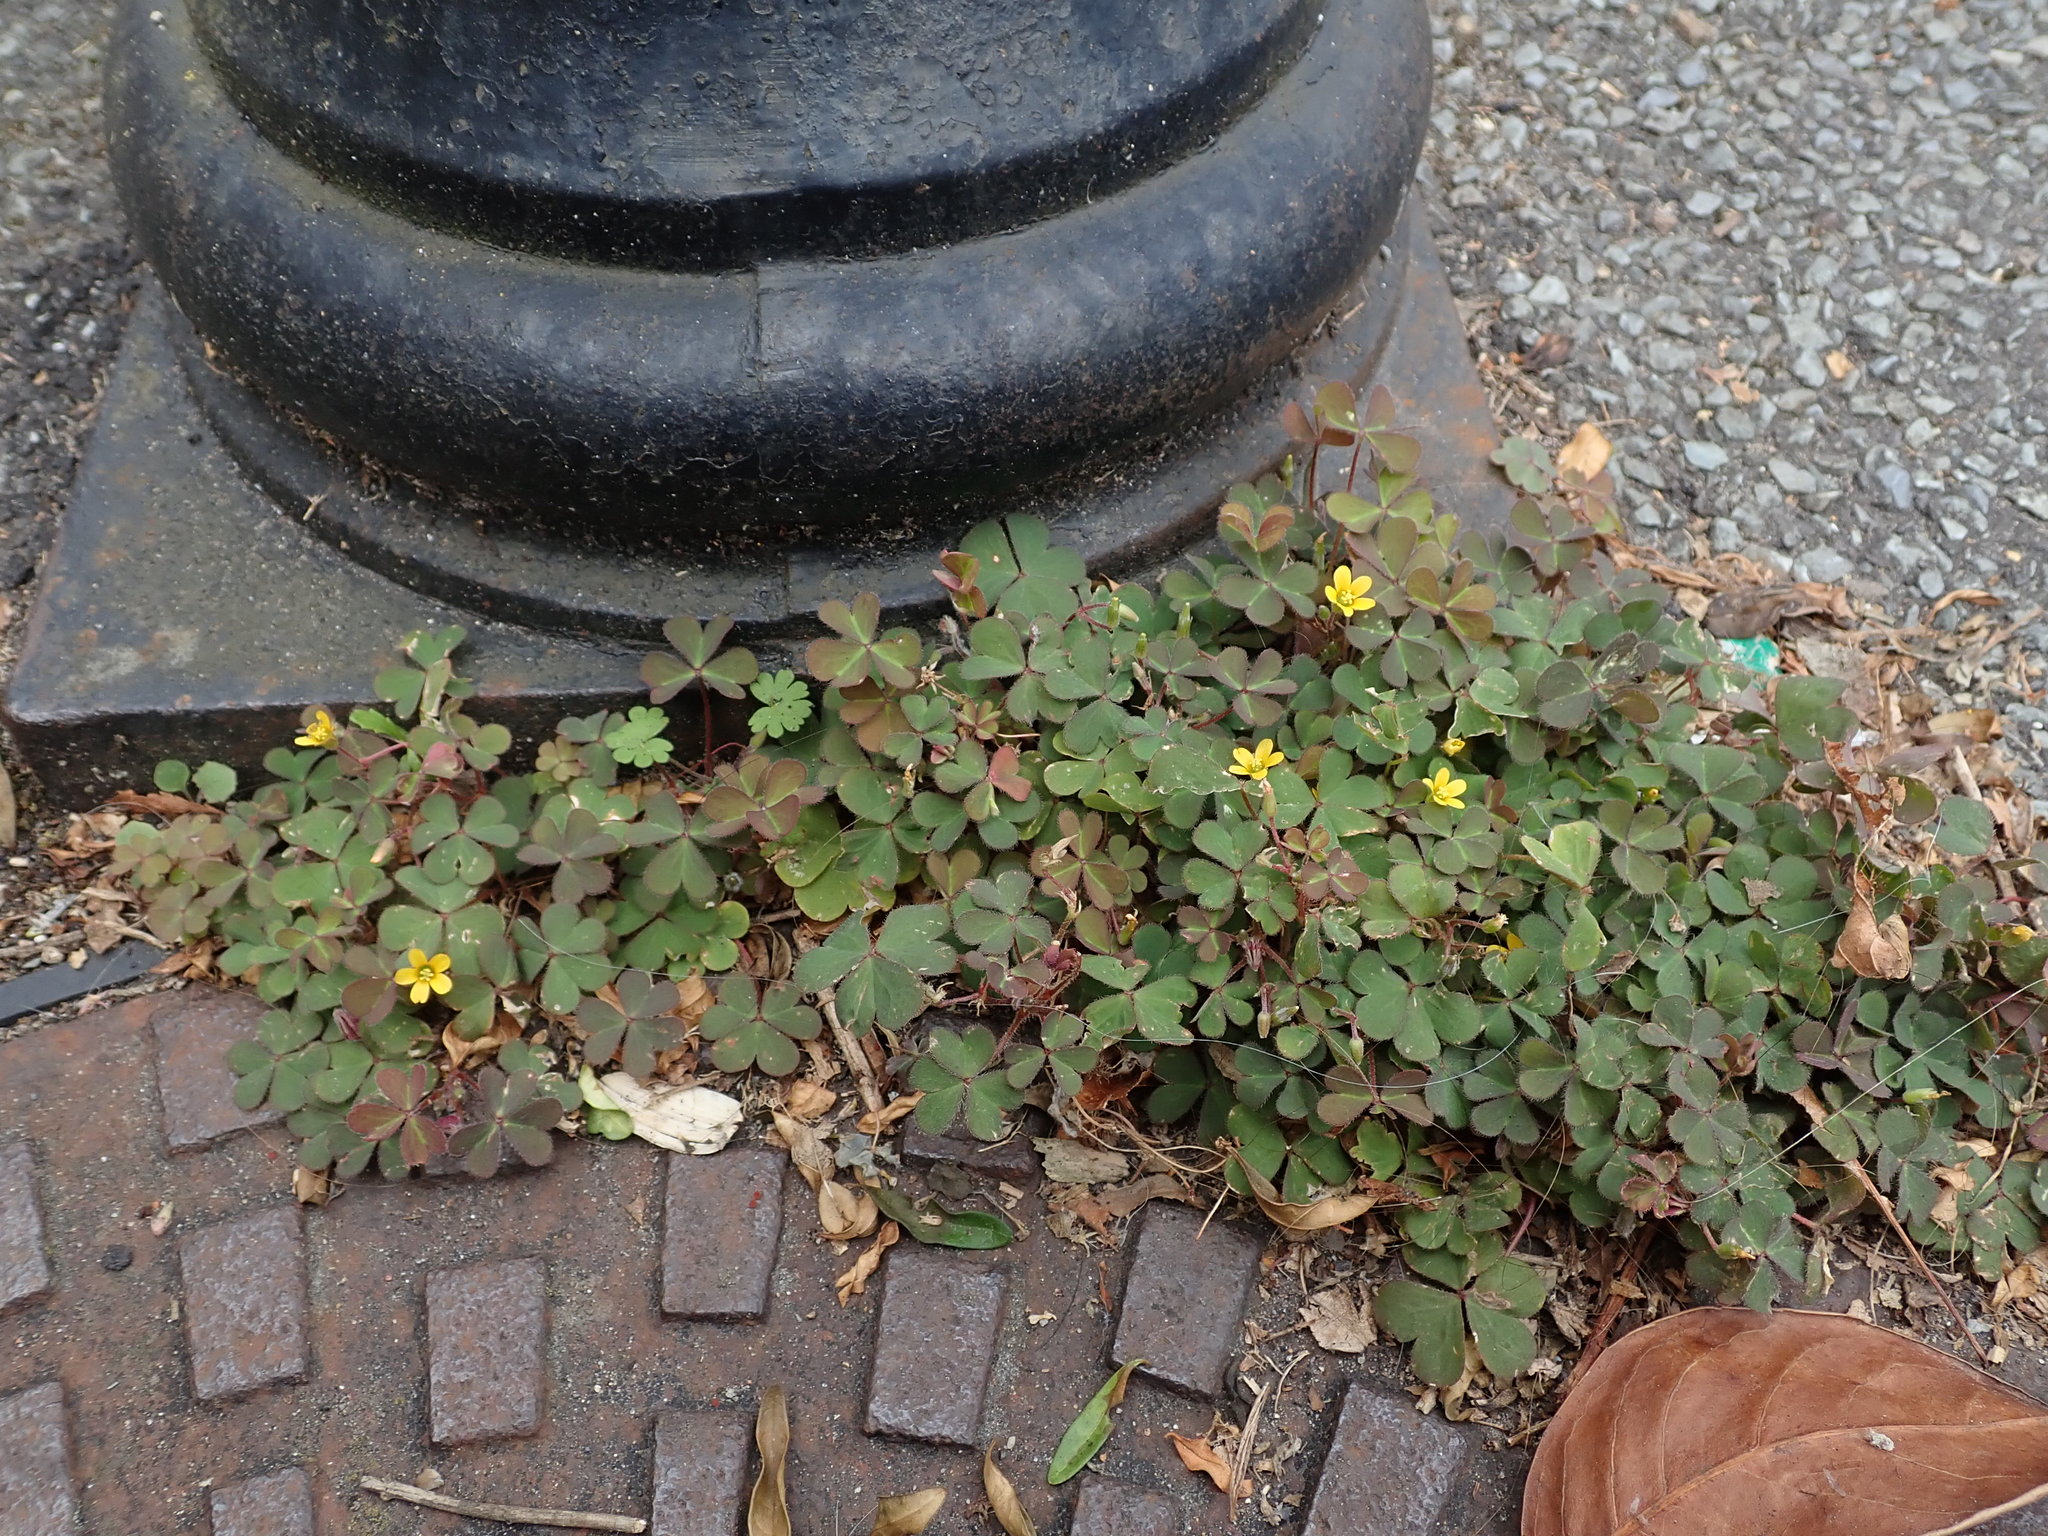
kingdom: Plantae
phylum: Tracheophyta
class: Magnoliopsida
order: Oxalidales
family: Oxalidaceae
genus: Oxalis
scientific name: Oxalis corniculata
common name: Procumbent yellow-sorrel
